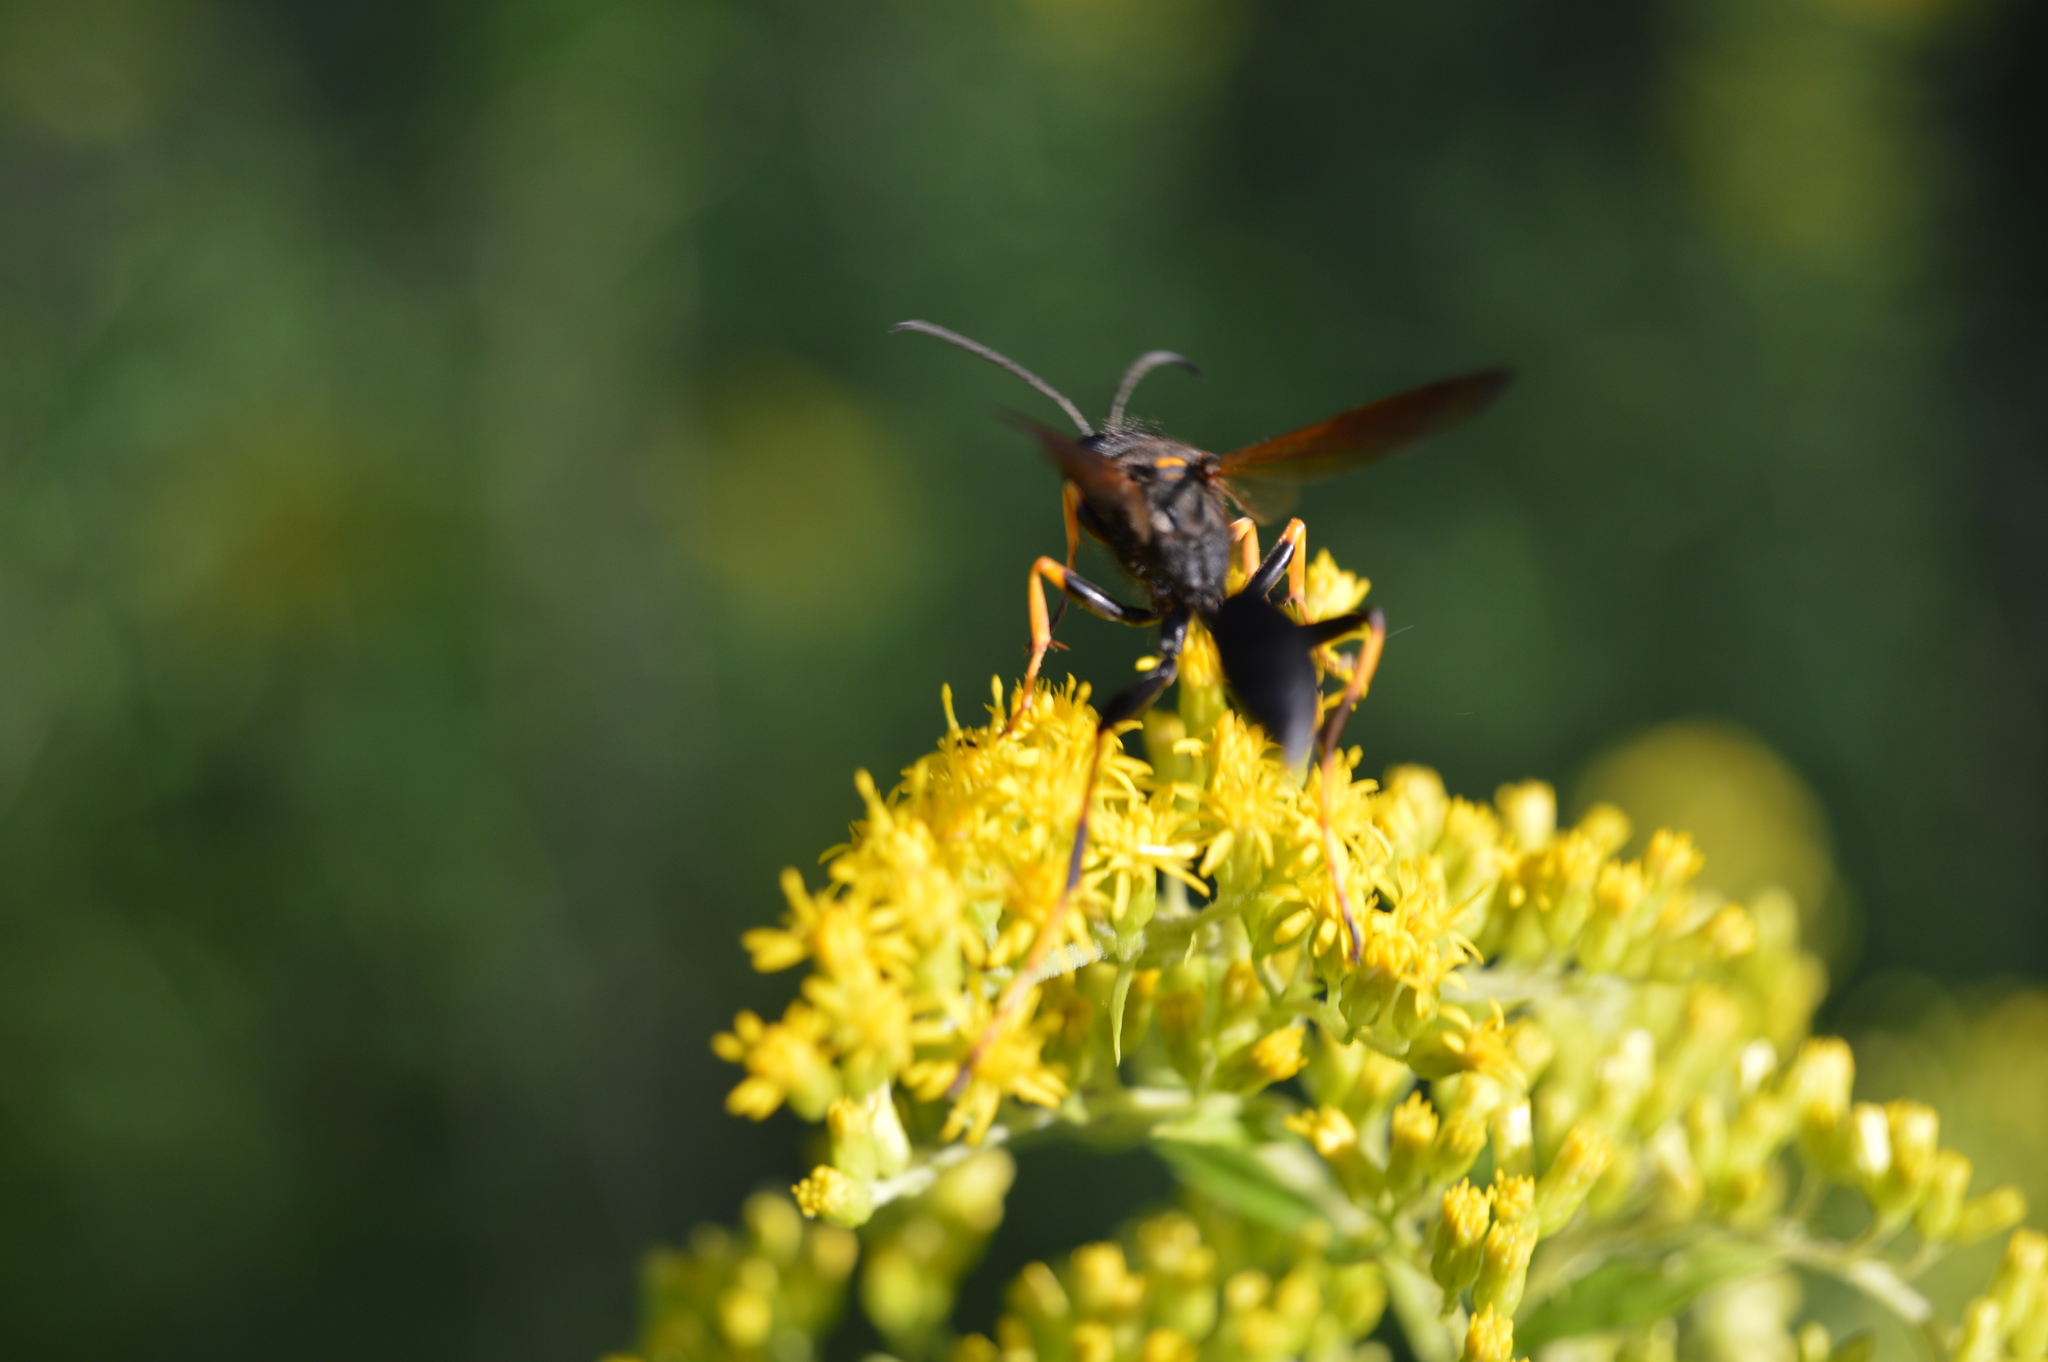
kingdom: Animalia
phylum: Arthropoda
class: Insecta
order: Hymenoptera
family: Sphecidae
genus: Sceliphron
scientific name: Sceliphron caementarium
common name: Mud dauber
